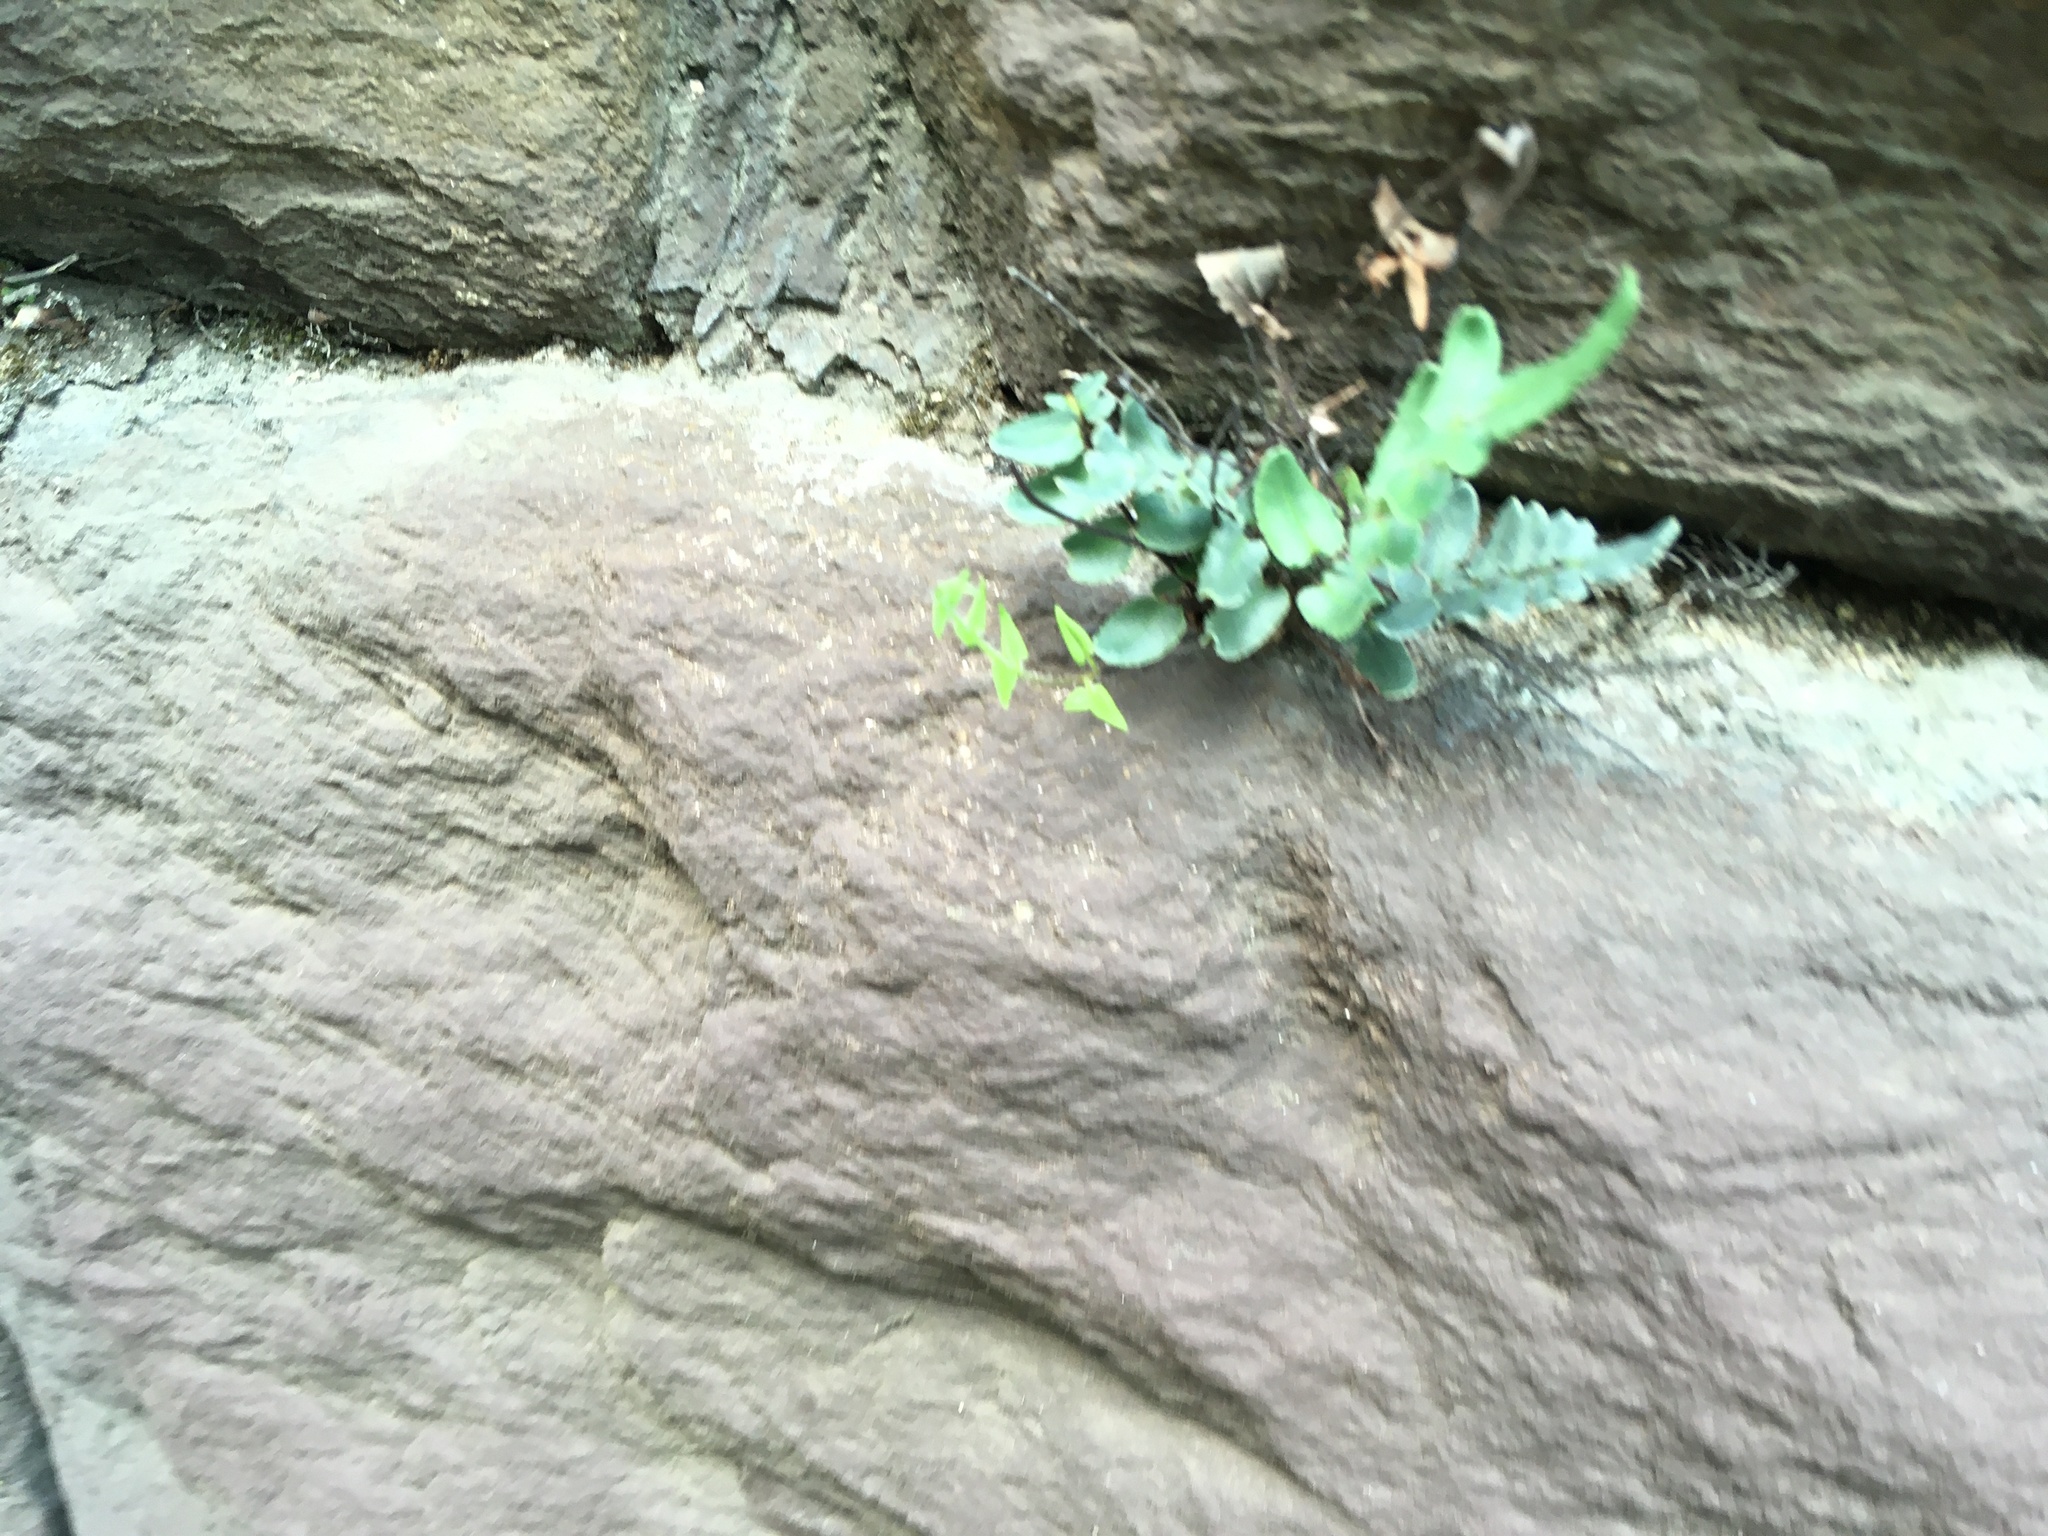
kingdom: Plantae
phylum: Tracheophyta
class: Polypodiopsida
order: Polypodiales
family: Pteridaceae
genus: Pellaea
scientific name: Pellaea atropurpurea
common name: Hairy cliffbrake
